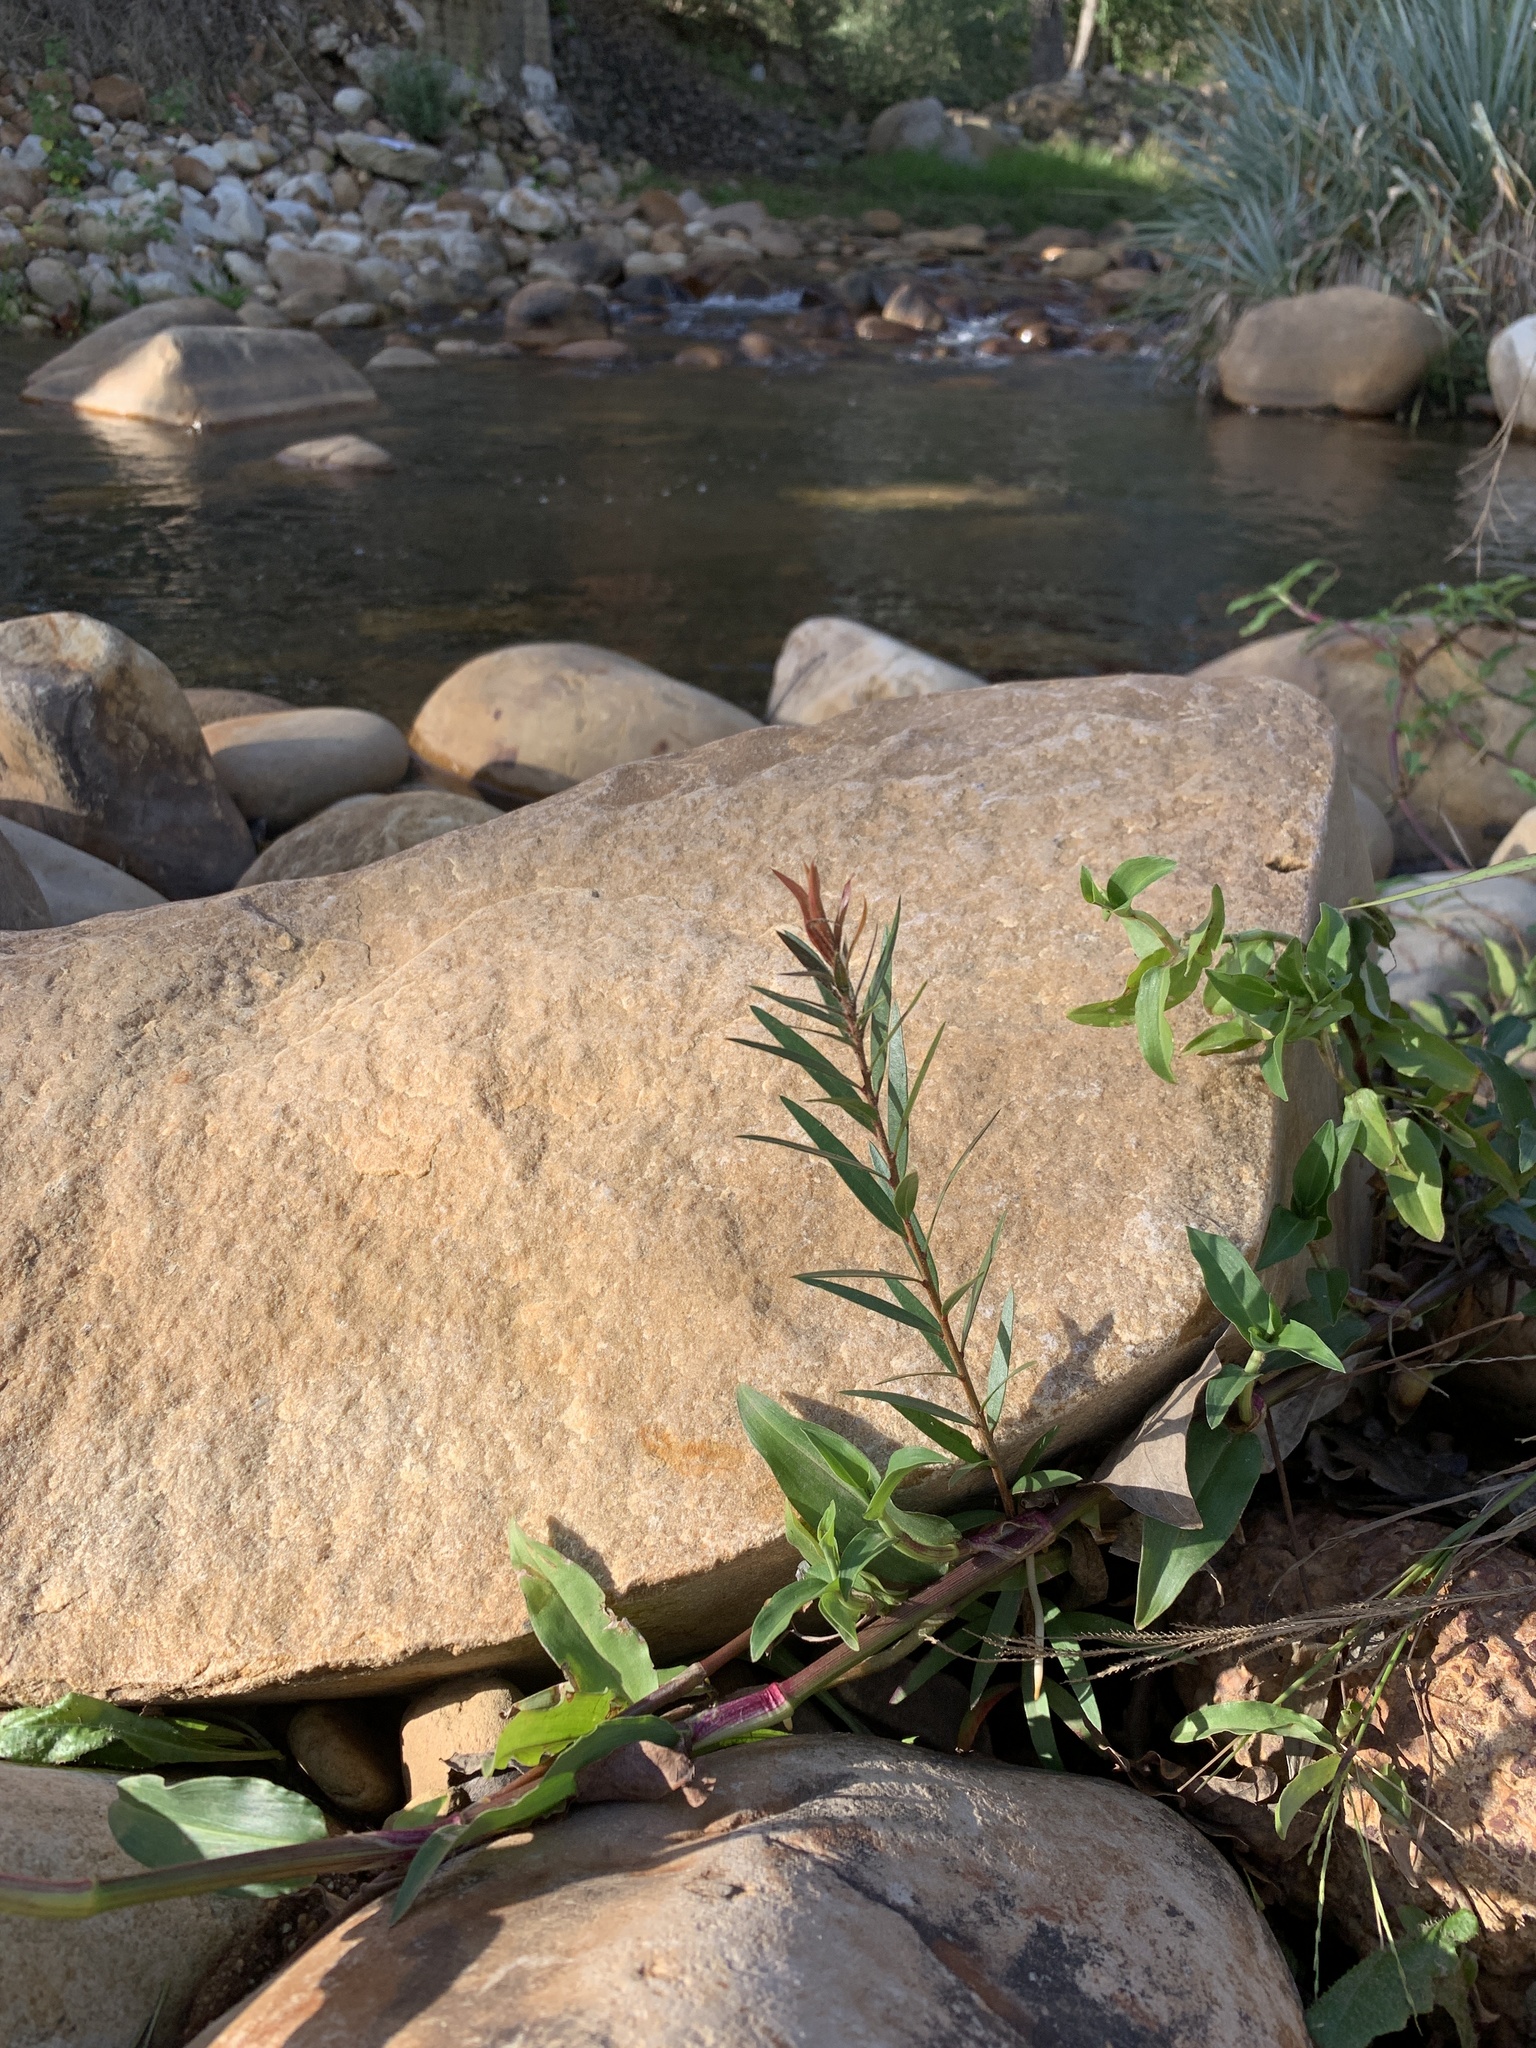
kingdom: Plantae
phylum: Tracheophyta
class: Magnoliopsida
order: Myrtales
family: Myrtaceae
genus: Callistemon
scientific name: Callistemon viminalis
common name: Drooping bottlebrush
